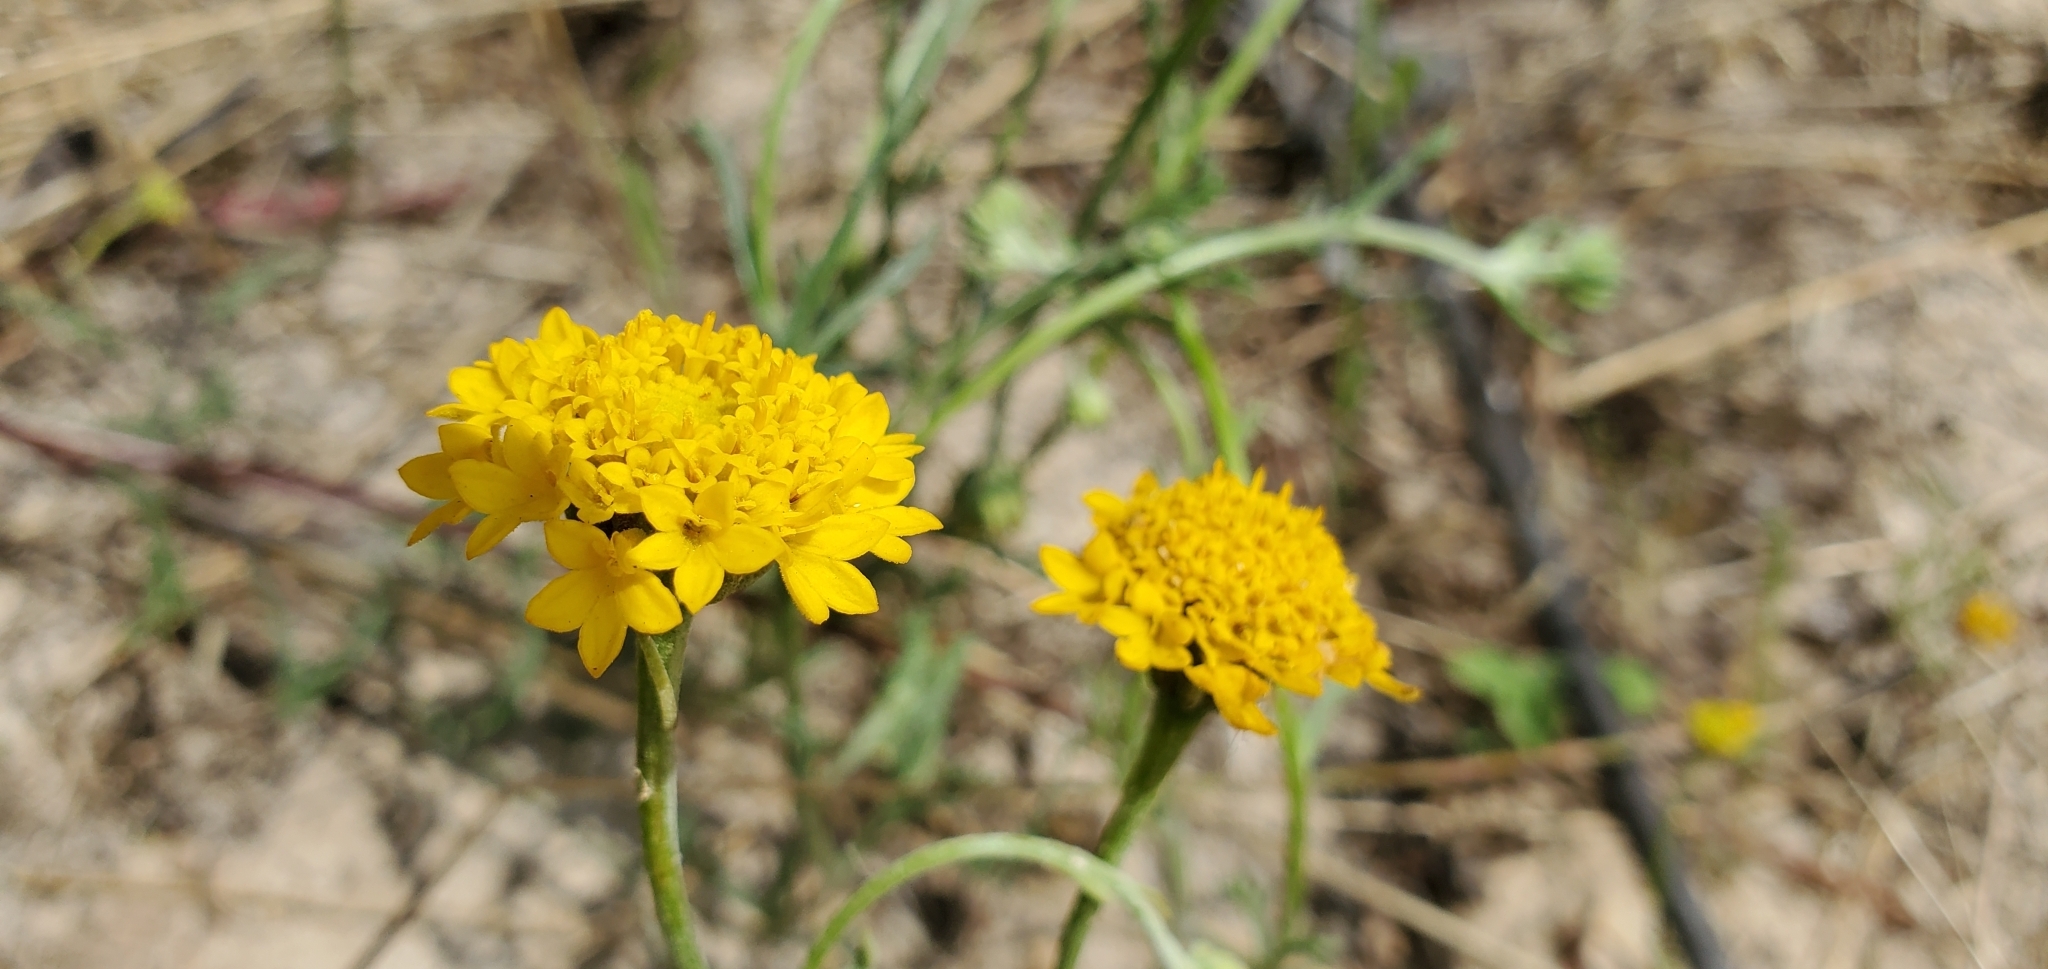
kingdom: Plantae
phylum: Tracheophyta
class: Magnoliopsida
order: Asterales
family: Asteraceae
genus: Chaenactis
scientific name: Chaenactis glabriuscula
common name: Yellow pincushion
